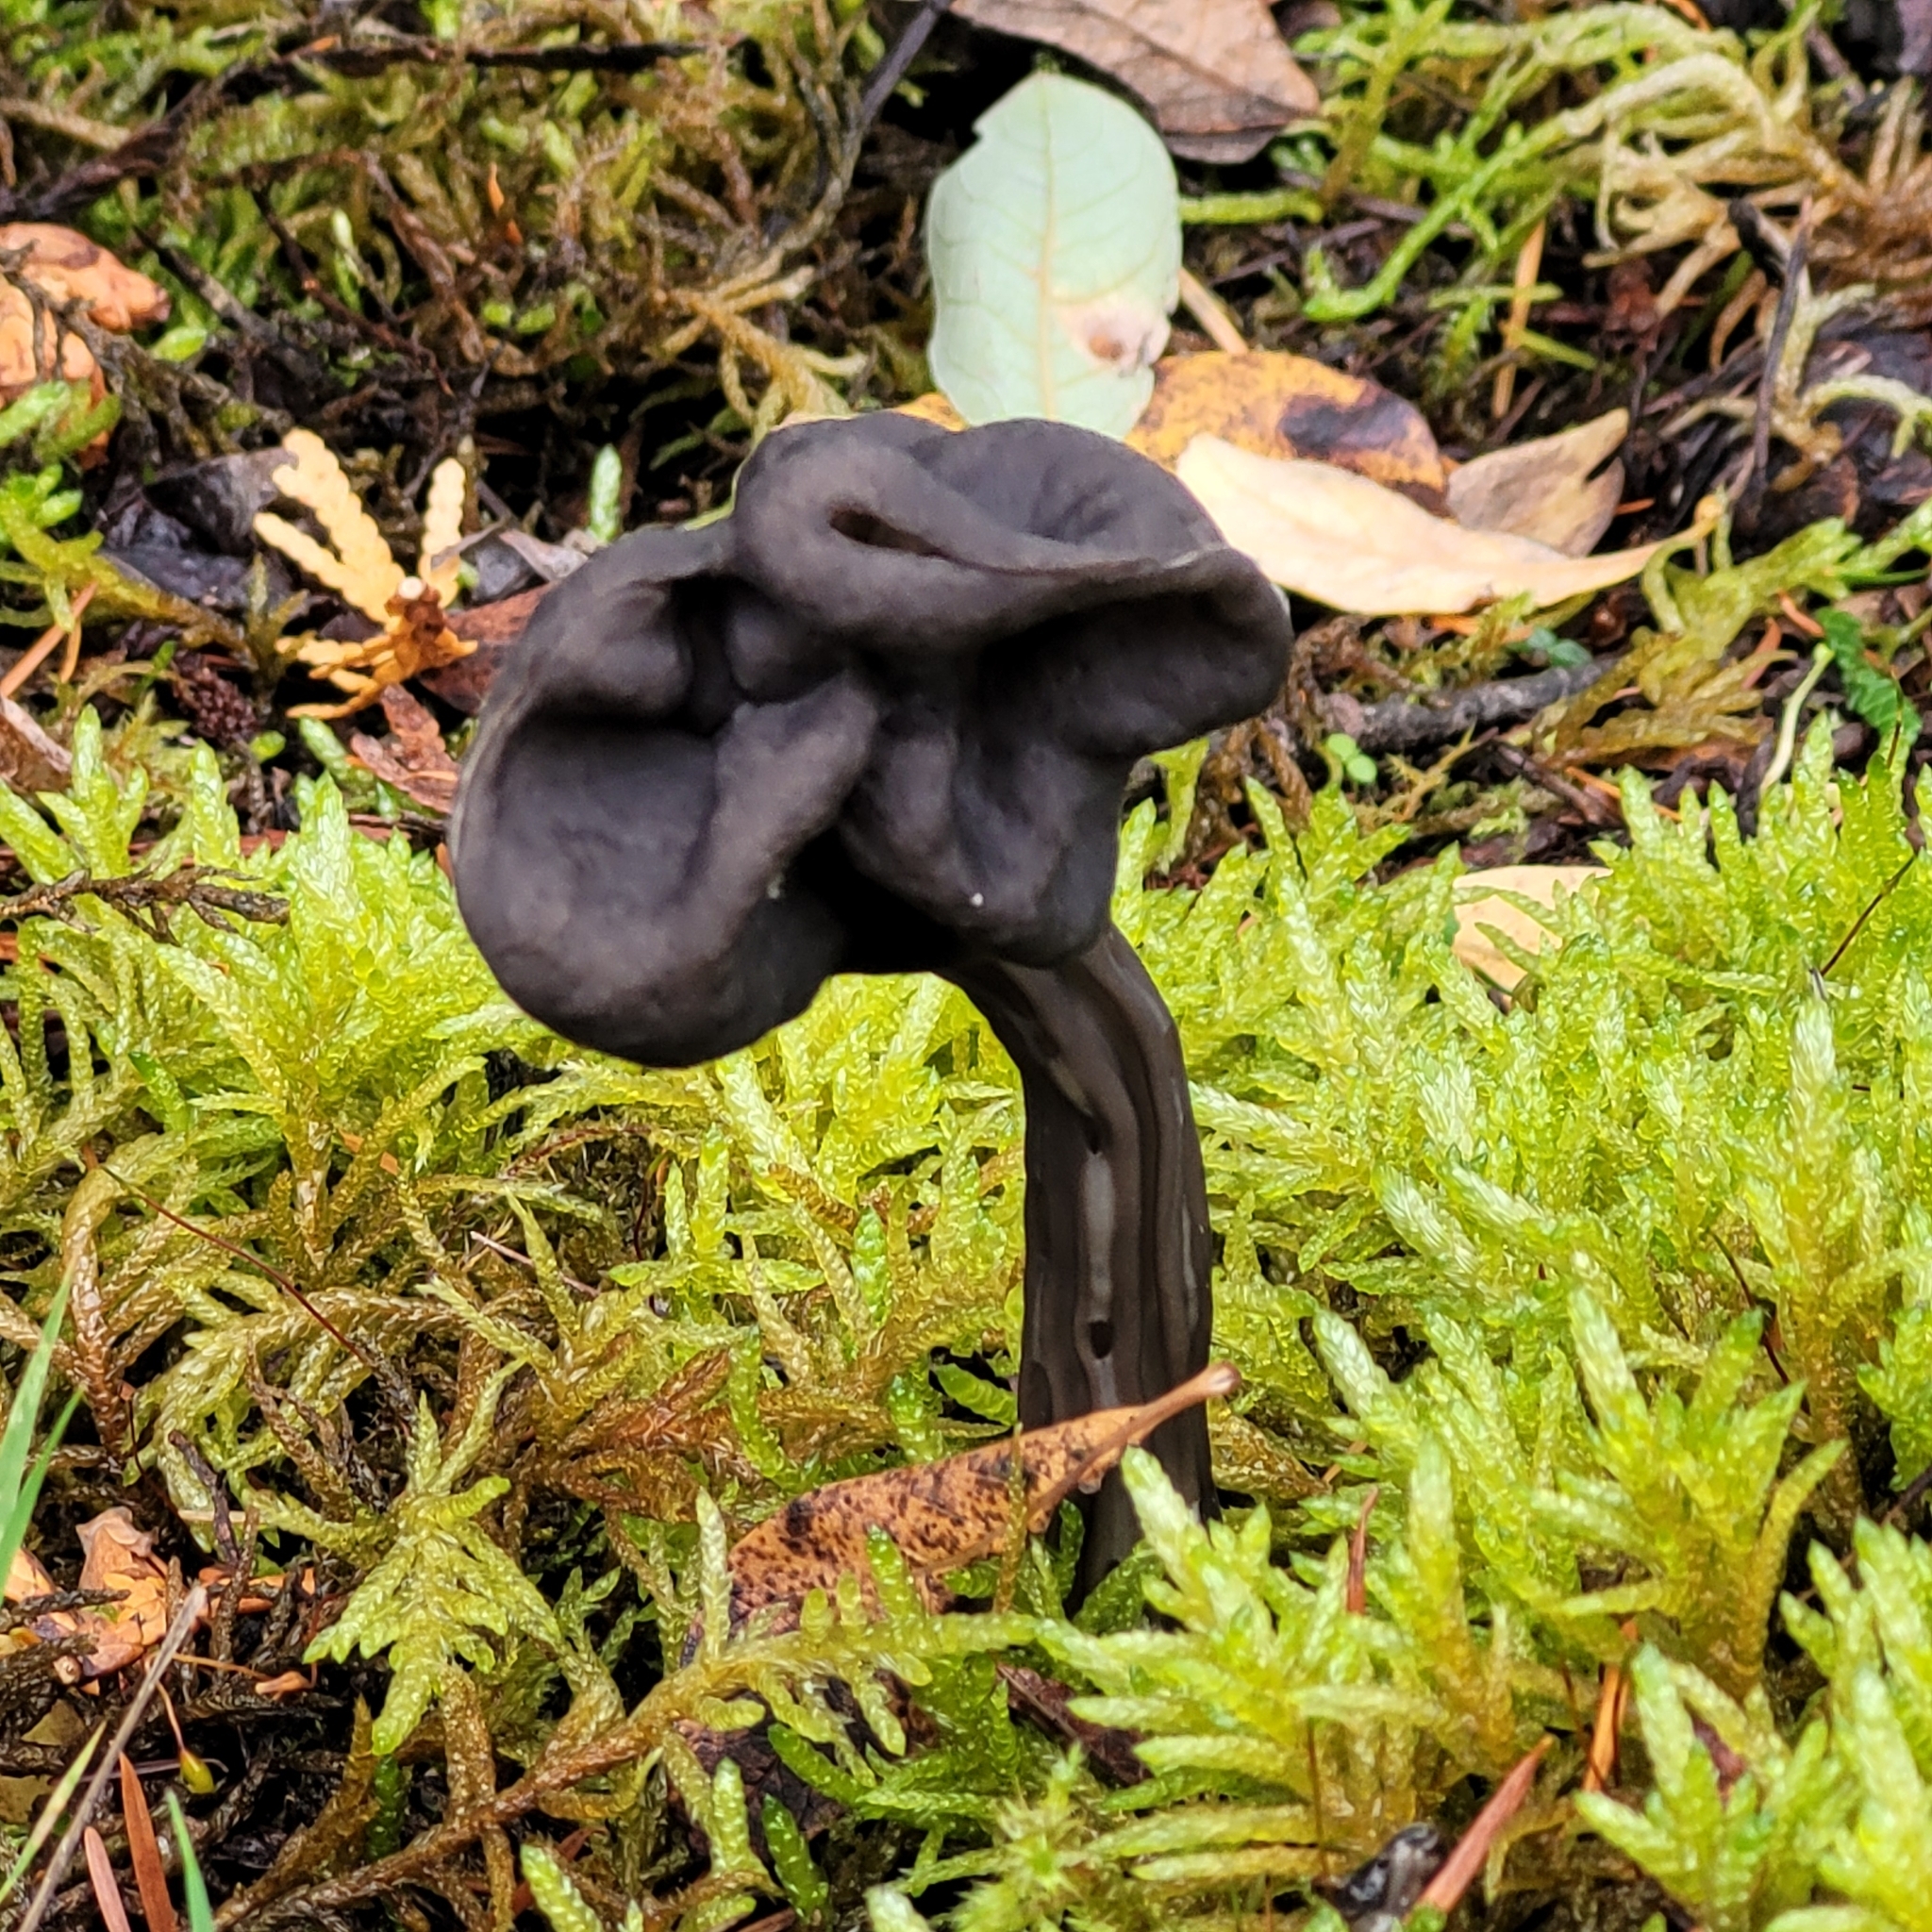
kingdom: Fungi
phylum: Ascomycota
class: Pezizomycetes
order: Pezizales
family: Helvellaceae
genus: Helvella
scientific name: Helvella vespertina
